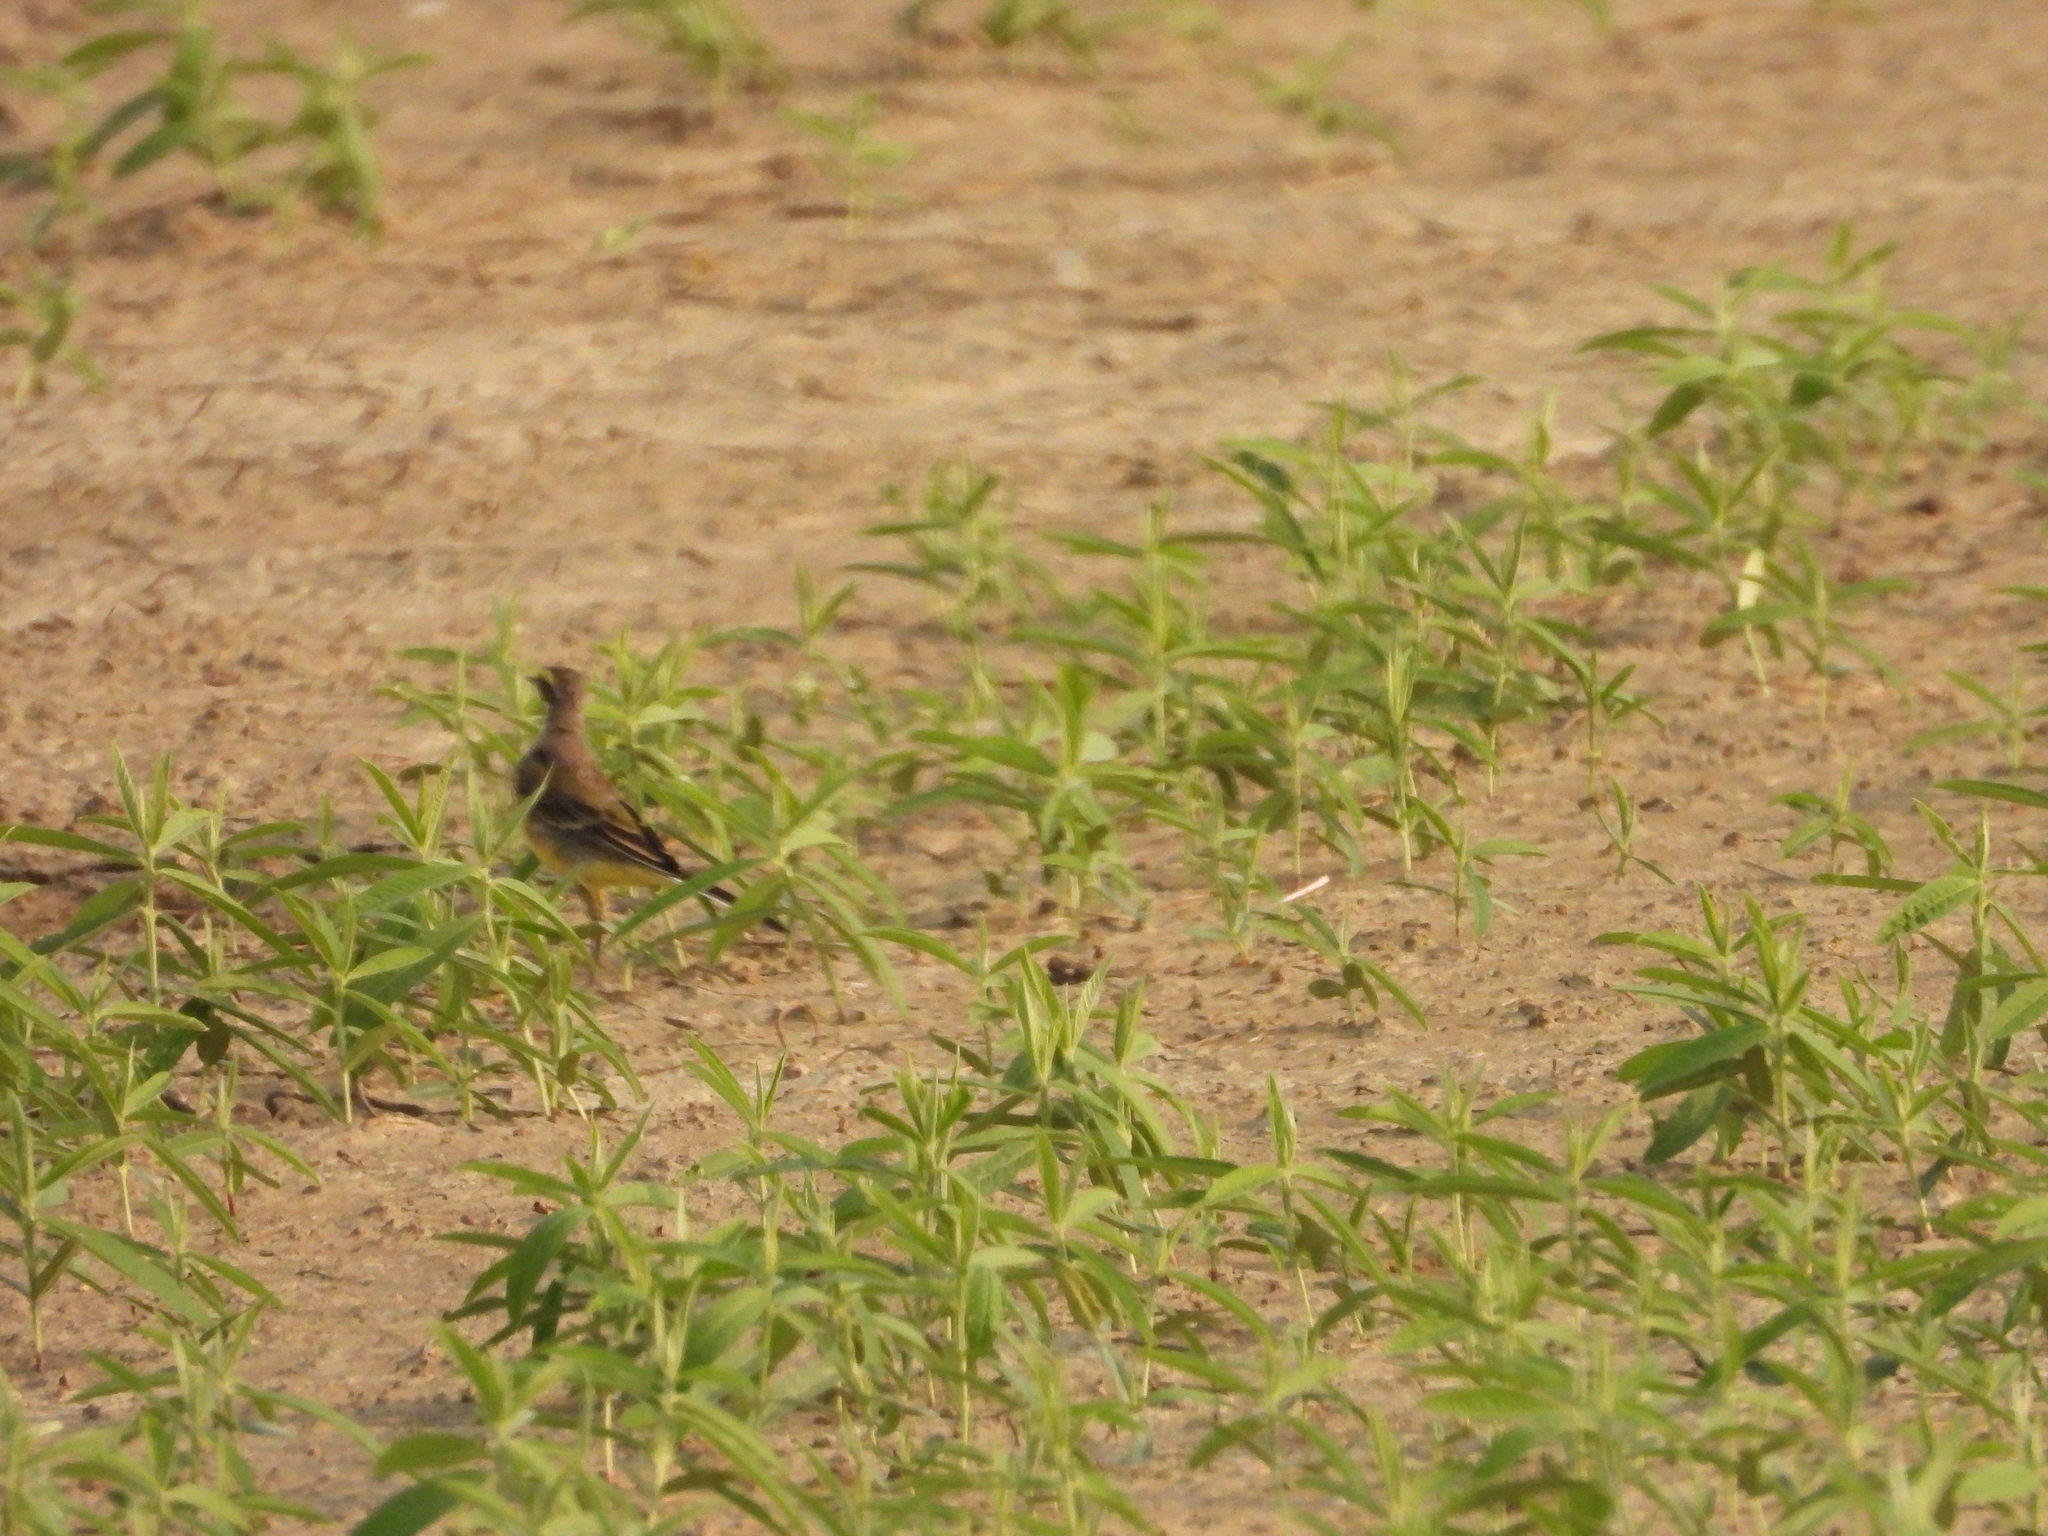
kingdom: Animalia
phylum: Chordata
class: Aves
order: Passeriformes
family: Motacillidae
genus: Motacilla
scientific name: Motacilla tschutschensis
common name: Eastern yellow wagtail
